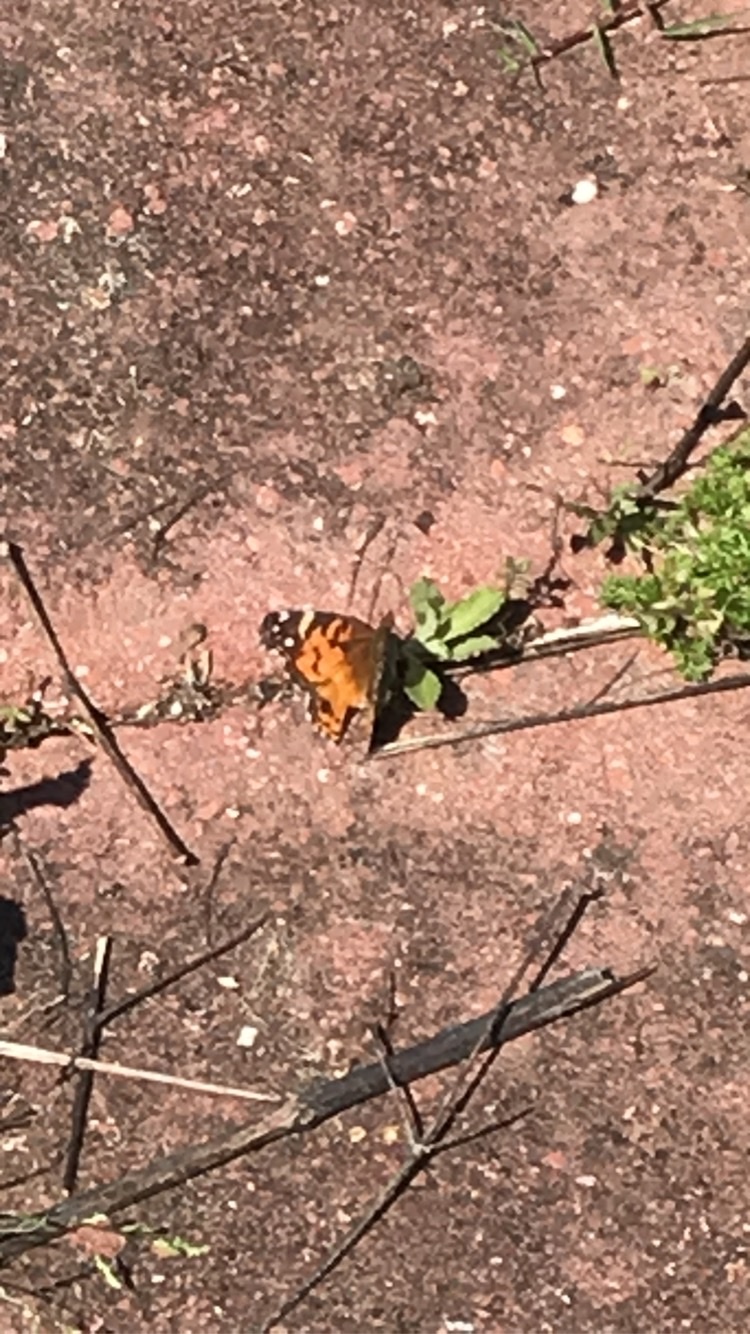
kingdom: Animalia
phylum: Arthropoda
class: Insecta
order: Lepidoptera
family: Nymphalidae
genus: Vanessa
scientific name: Vanessa virginiensis
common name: American lady
